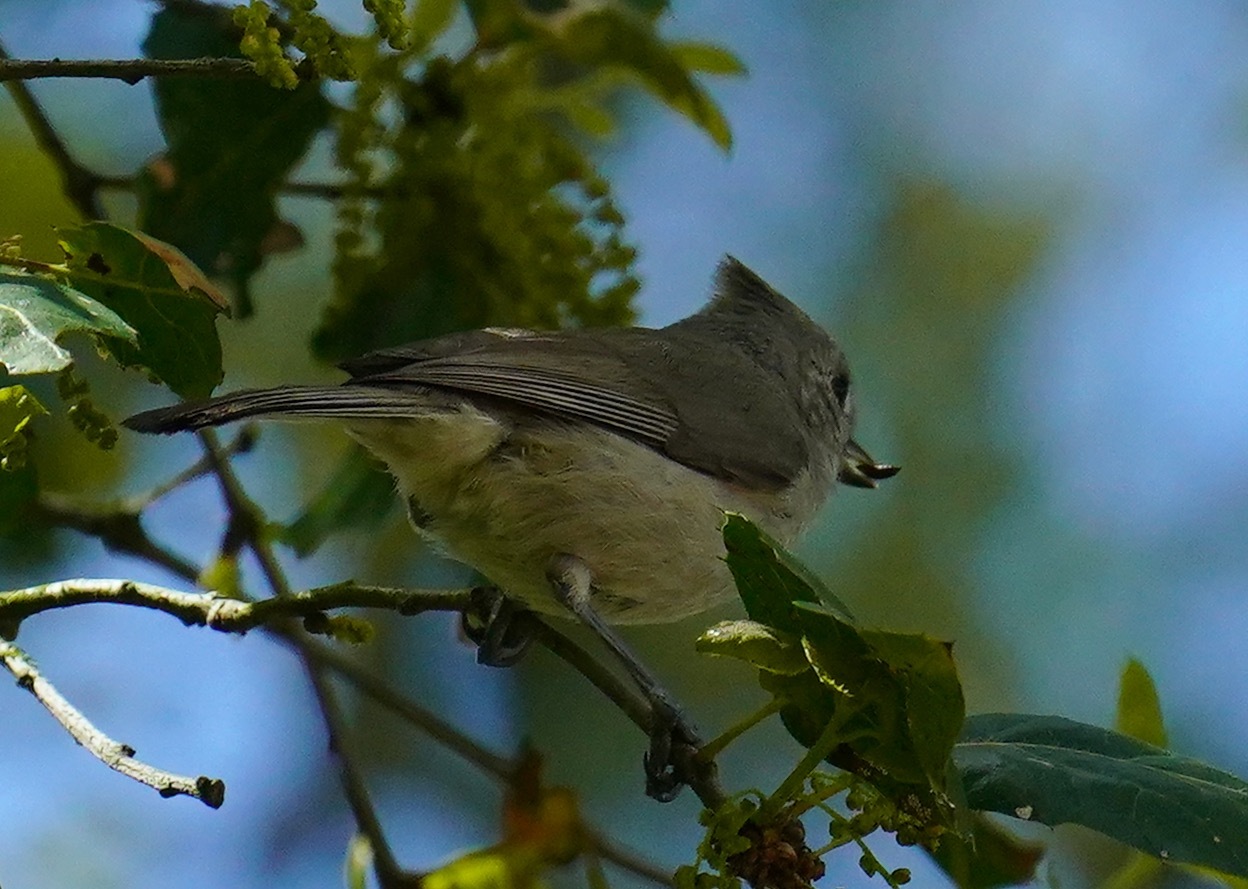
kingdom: Animalia
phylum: Chordata
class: Aves
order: Passeriformes
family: Paridae
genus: Baeolophus
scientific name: Baeolophus inornatus
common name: Oak titmouse
